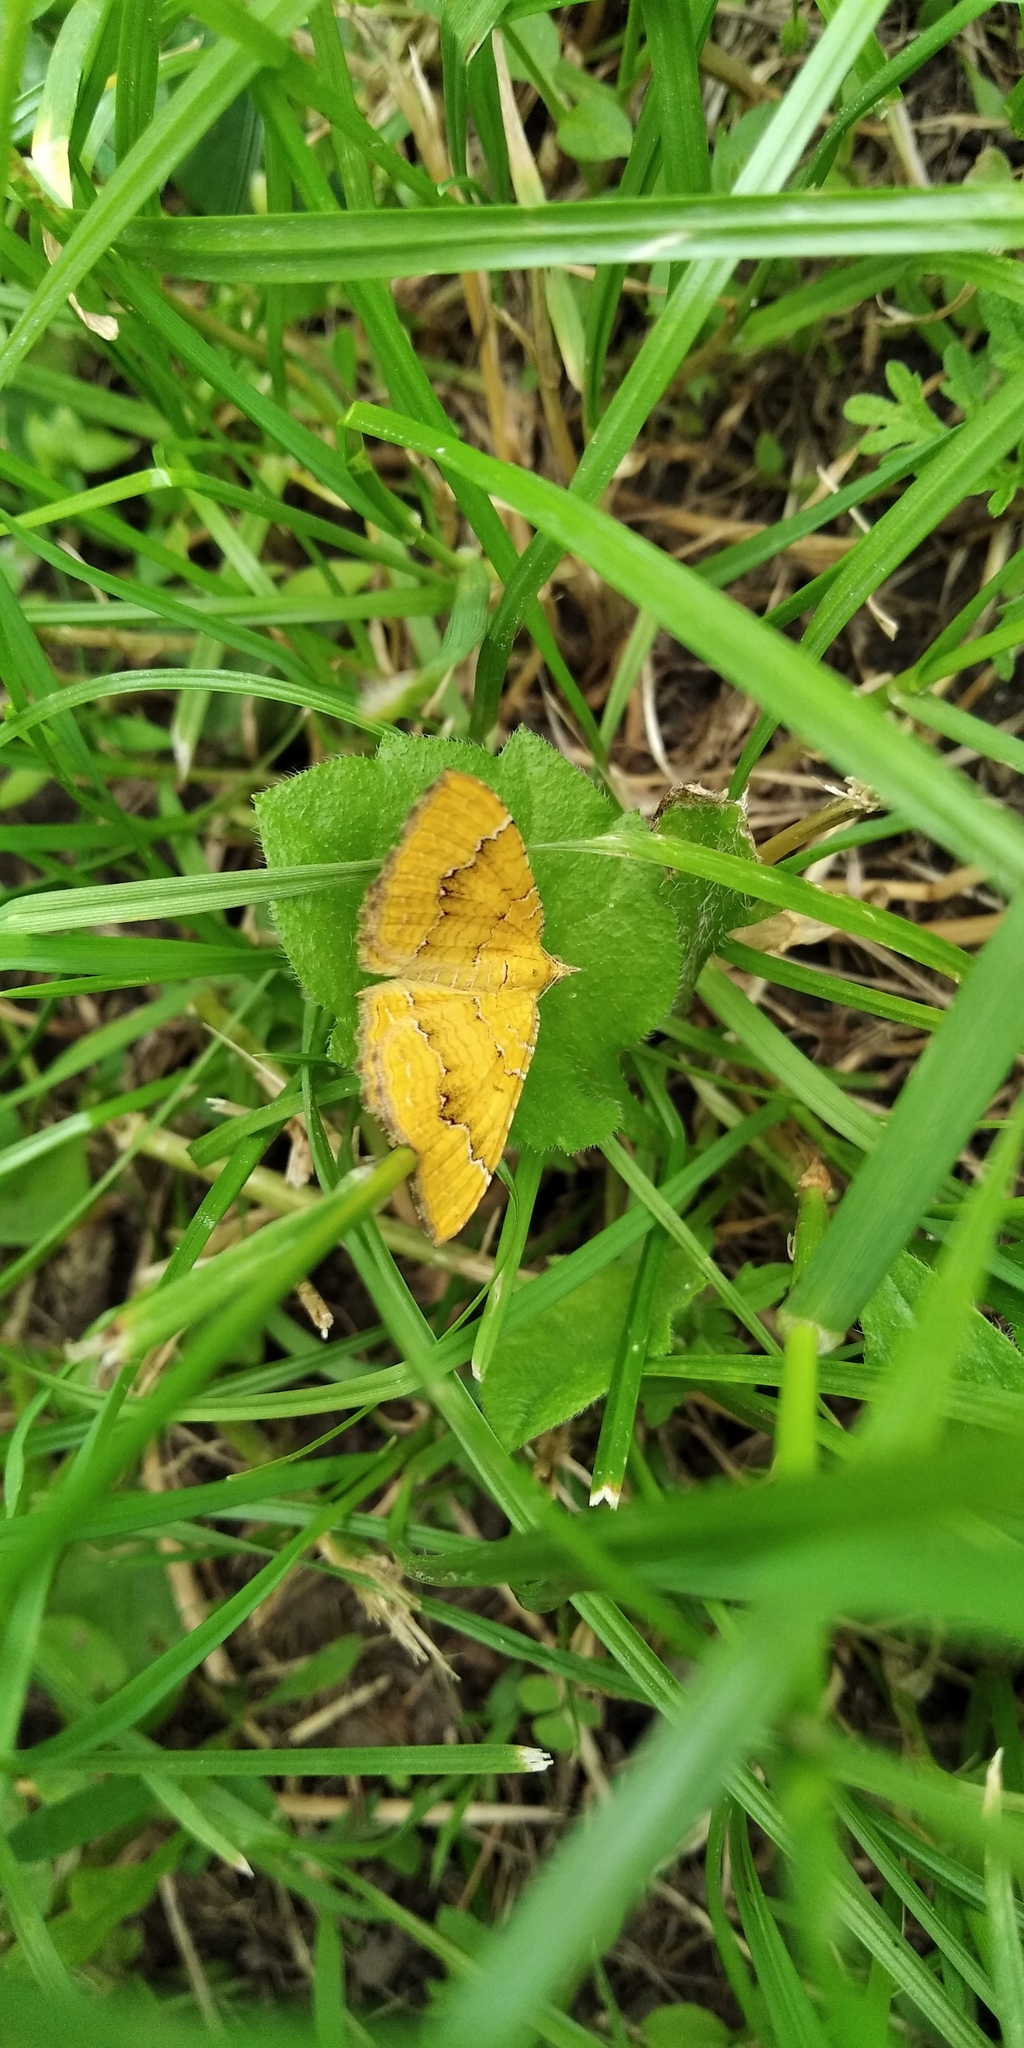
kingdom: Animalia
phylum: Arthropoda
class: Insecta
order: Lepidoptera
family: Geometridae
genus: Camptogramma
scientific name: Camptogramma bilineata
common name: Yellow shell
